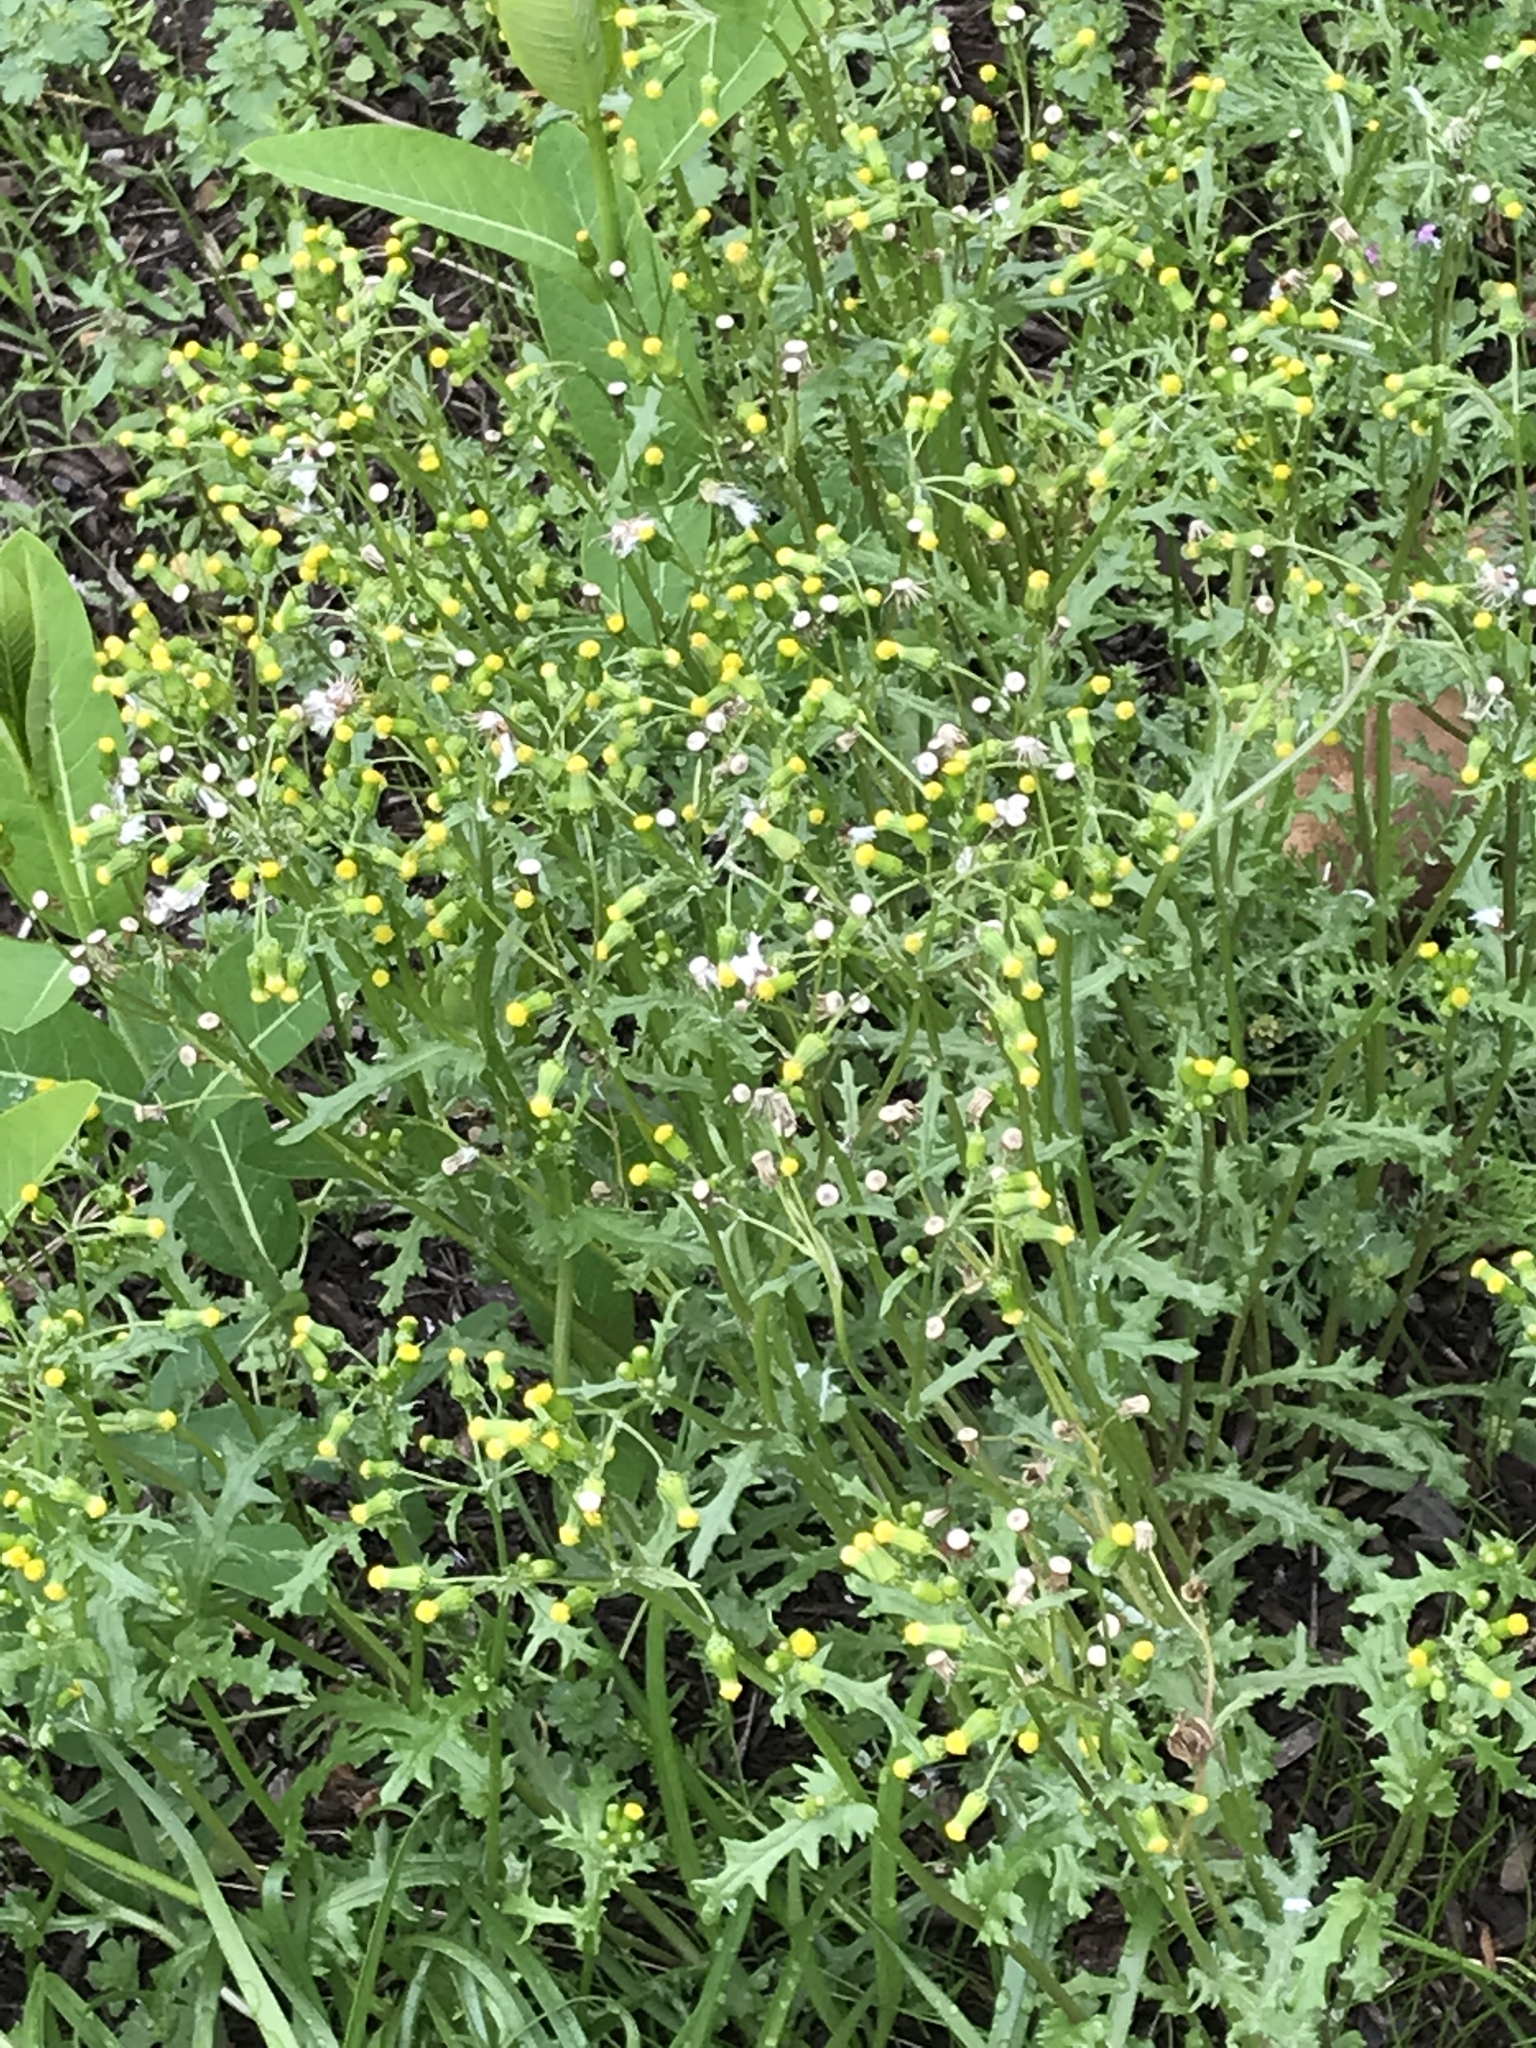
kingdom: Plantae
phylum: Tracheophyta
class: Magnoliopsida
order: Asterales
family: Asteraceae
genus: Senecio
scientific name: Senecio vulgaris
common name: Old-man-in-the-spring
